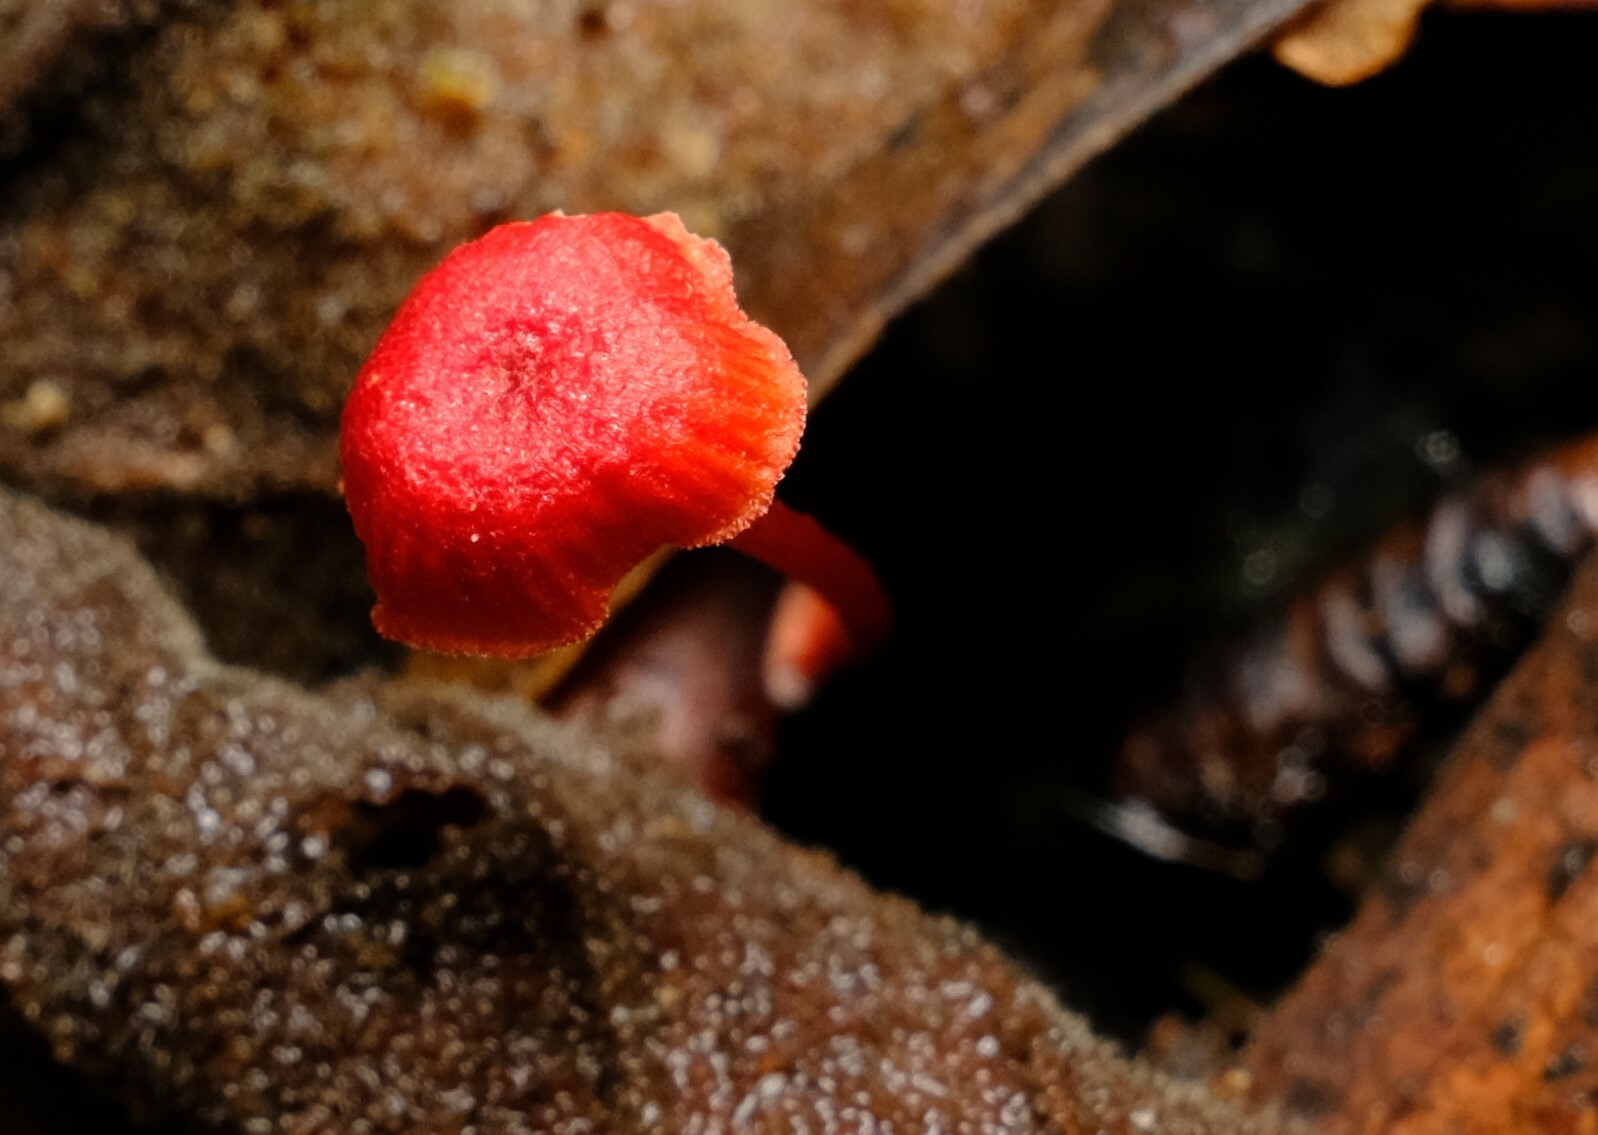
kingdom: Fungi
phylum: Basidiomycota
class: Agaricomycetes
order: Agaricales
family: Mycenaceae
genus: Cruentomycena
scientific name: Cruentomycena viscidocruenta
